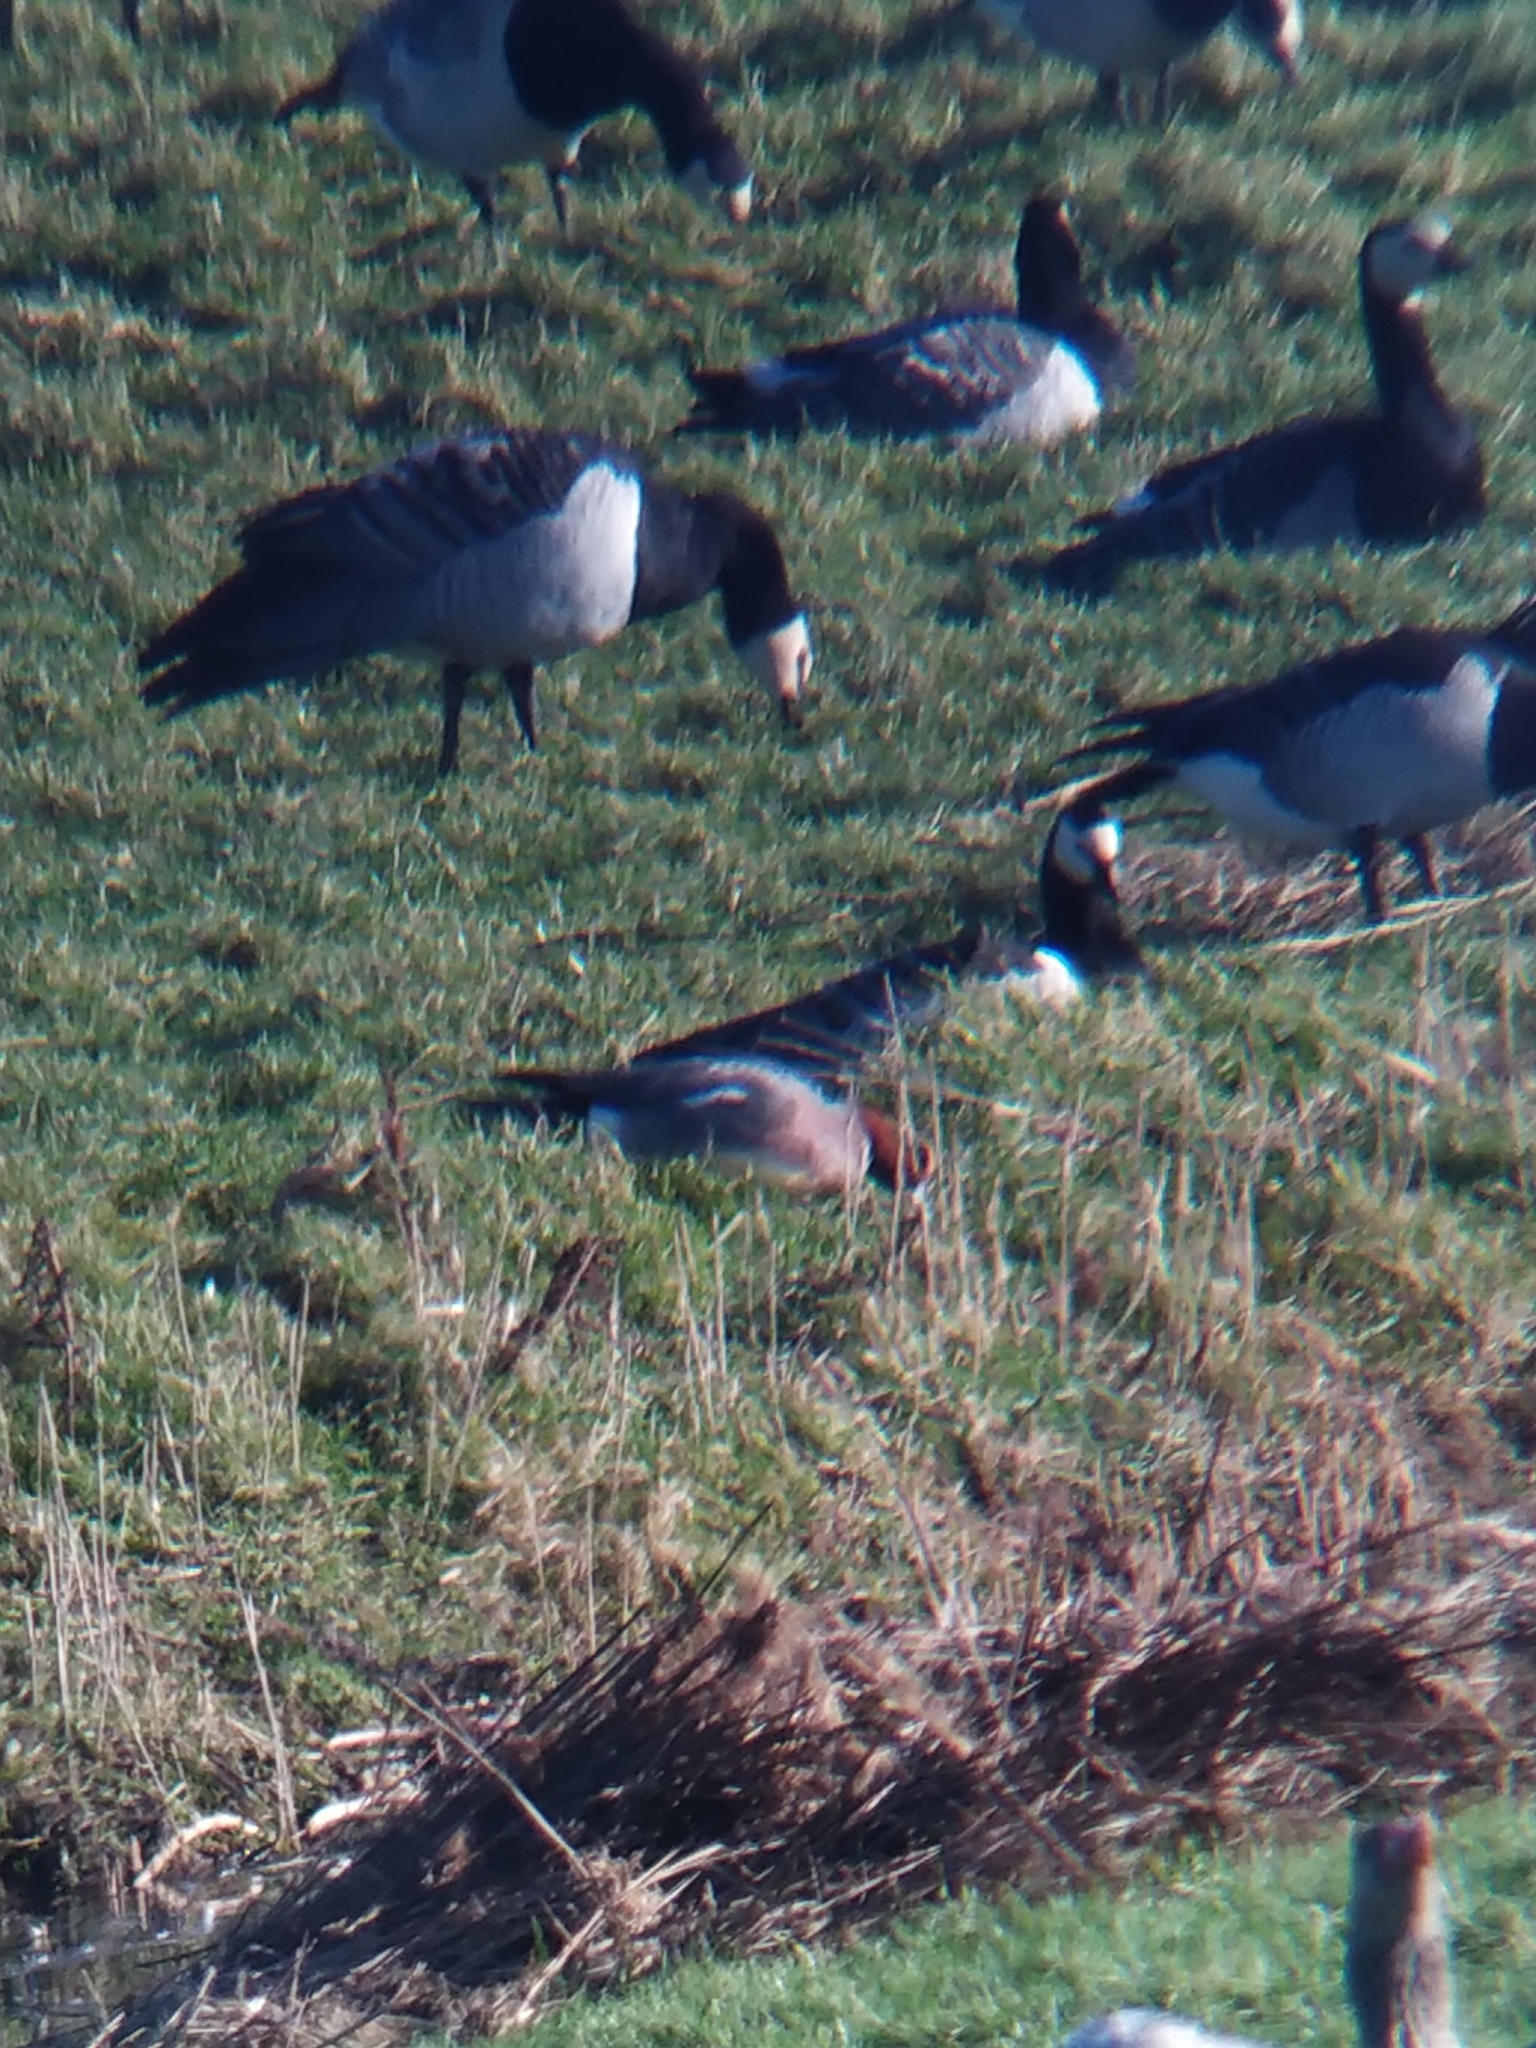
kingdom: Animalia
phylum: Chordata
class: Aves
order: Anseriformes
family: Anatidae
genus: Mareca
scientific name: Mareca penelope
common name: Eurasian wigeon
